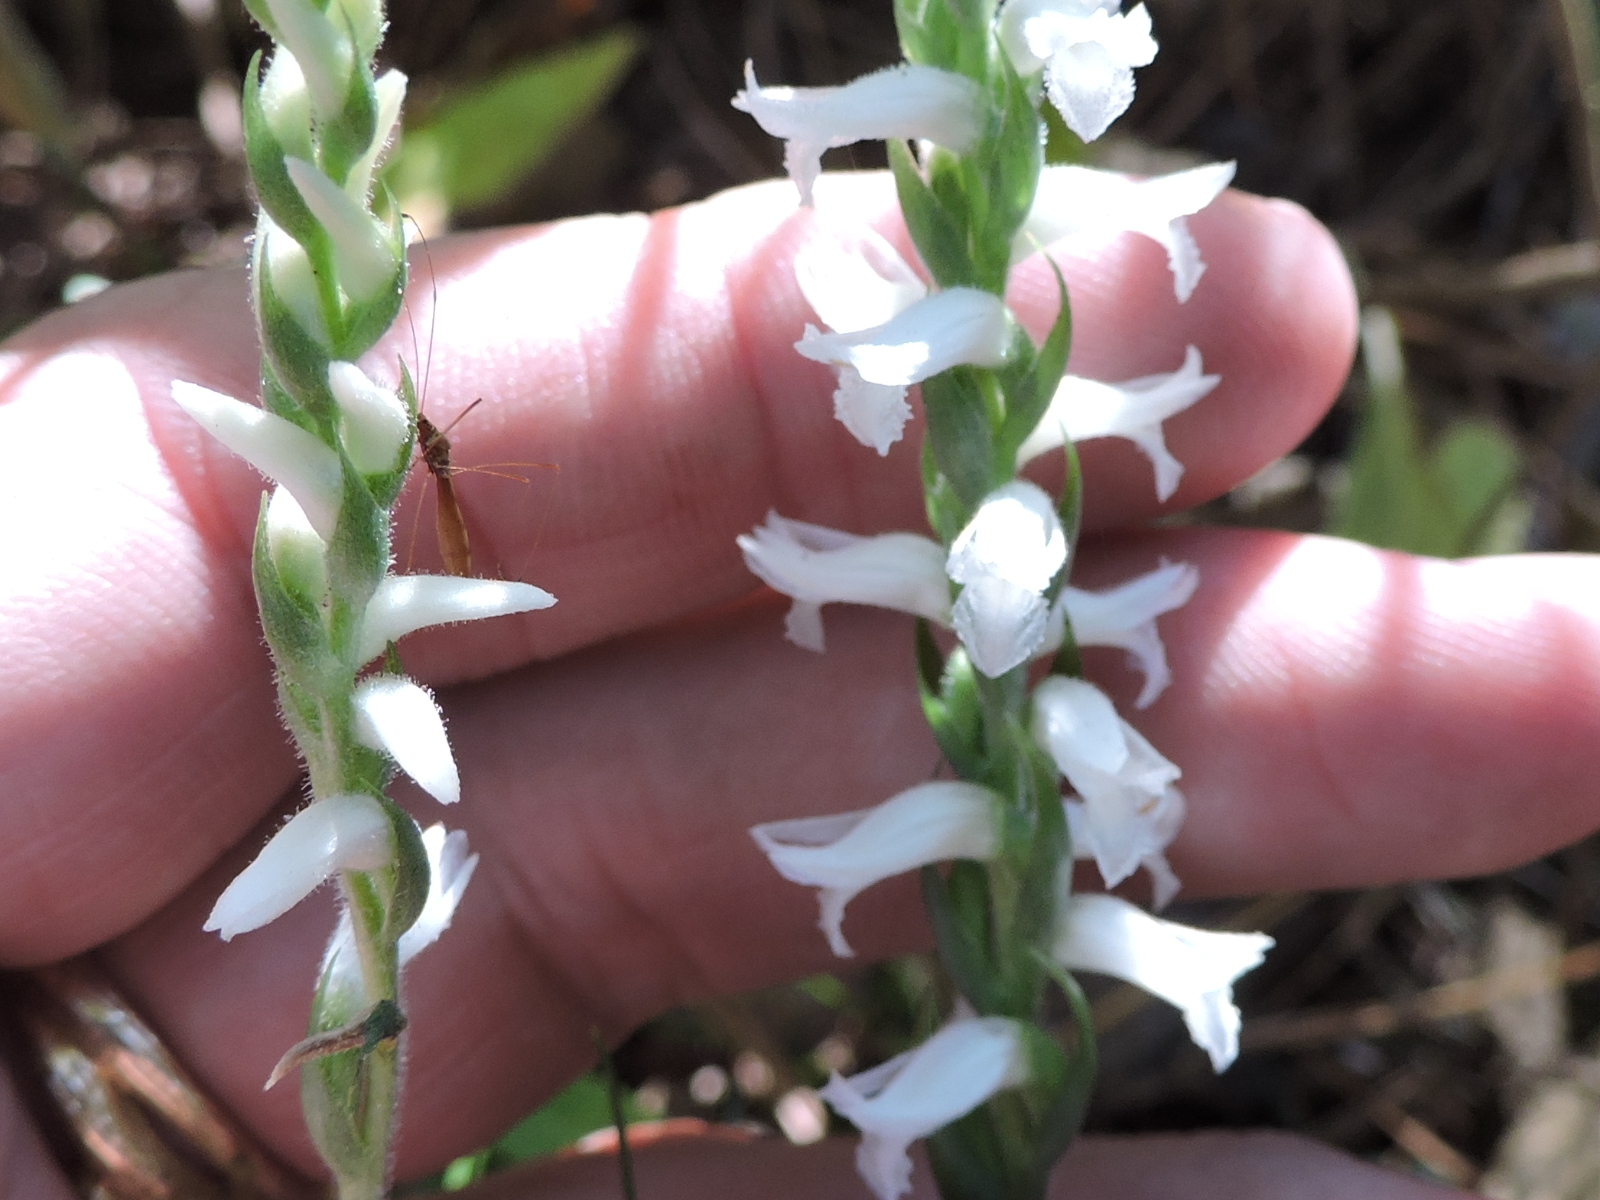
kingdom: Plantae
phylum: Tracheophyta
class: Liliopsida
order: Asparagales
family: Orchidaceae
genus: Spiranthes
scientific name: Spiranthes cernua
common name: Dropping ladies'-tresses
